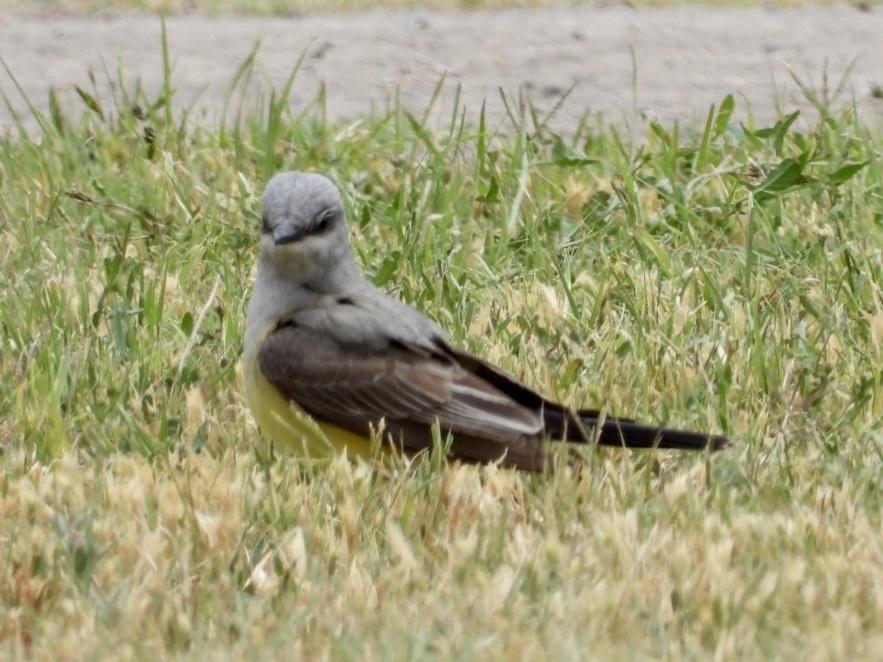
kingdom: Animalia
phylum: Chordata
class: Aves
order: Passeriformes
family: Tyrannidae
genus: Tyrannus
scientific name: Tyrannus verticalis
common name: Western kingbird
